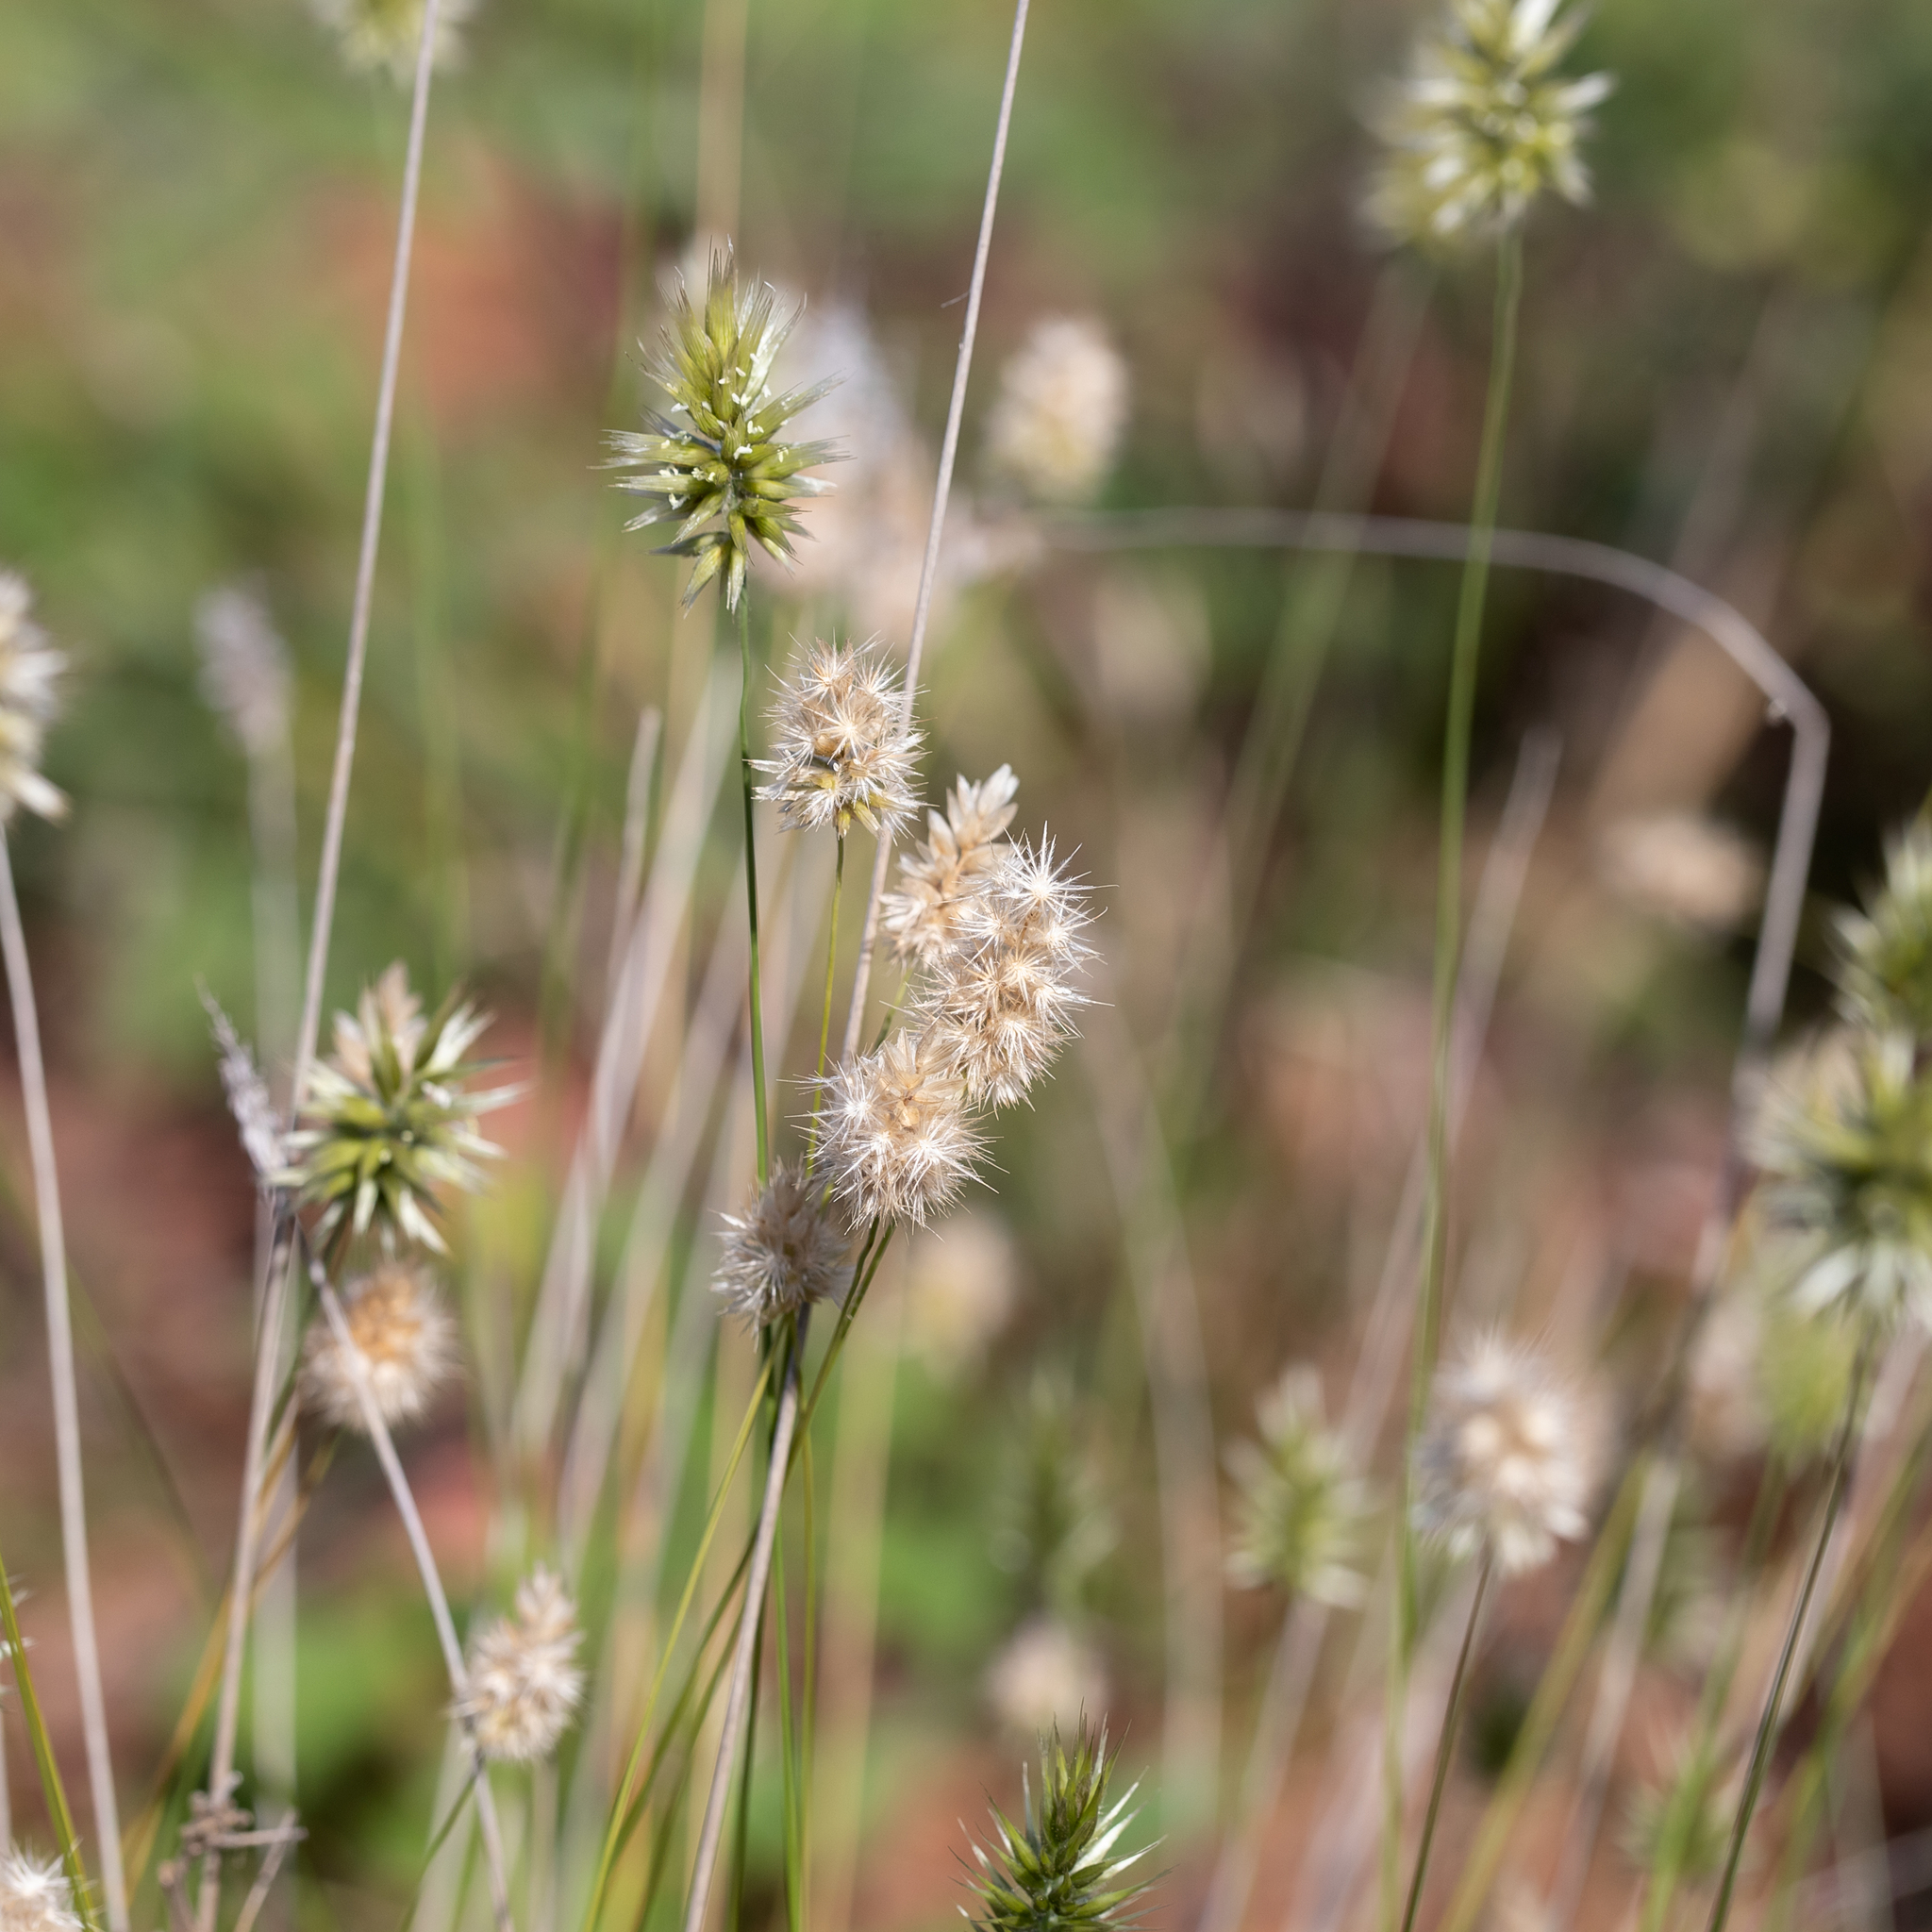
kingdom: Plantae
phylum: Tracheophyta
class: Liliopsida
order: Poales
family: Poaceae
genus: Enneapogon
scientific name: Enneapogon lindleyanus
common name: Conetop nineawn
